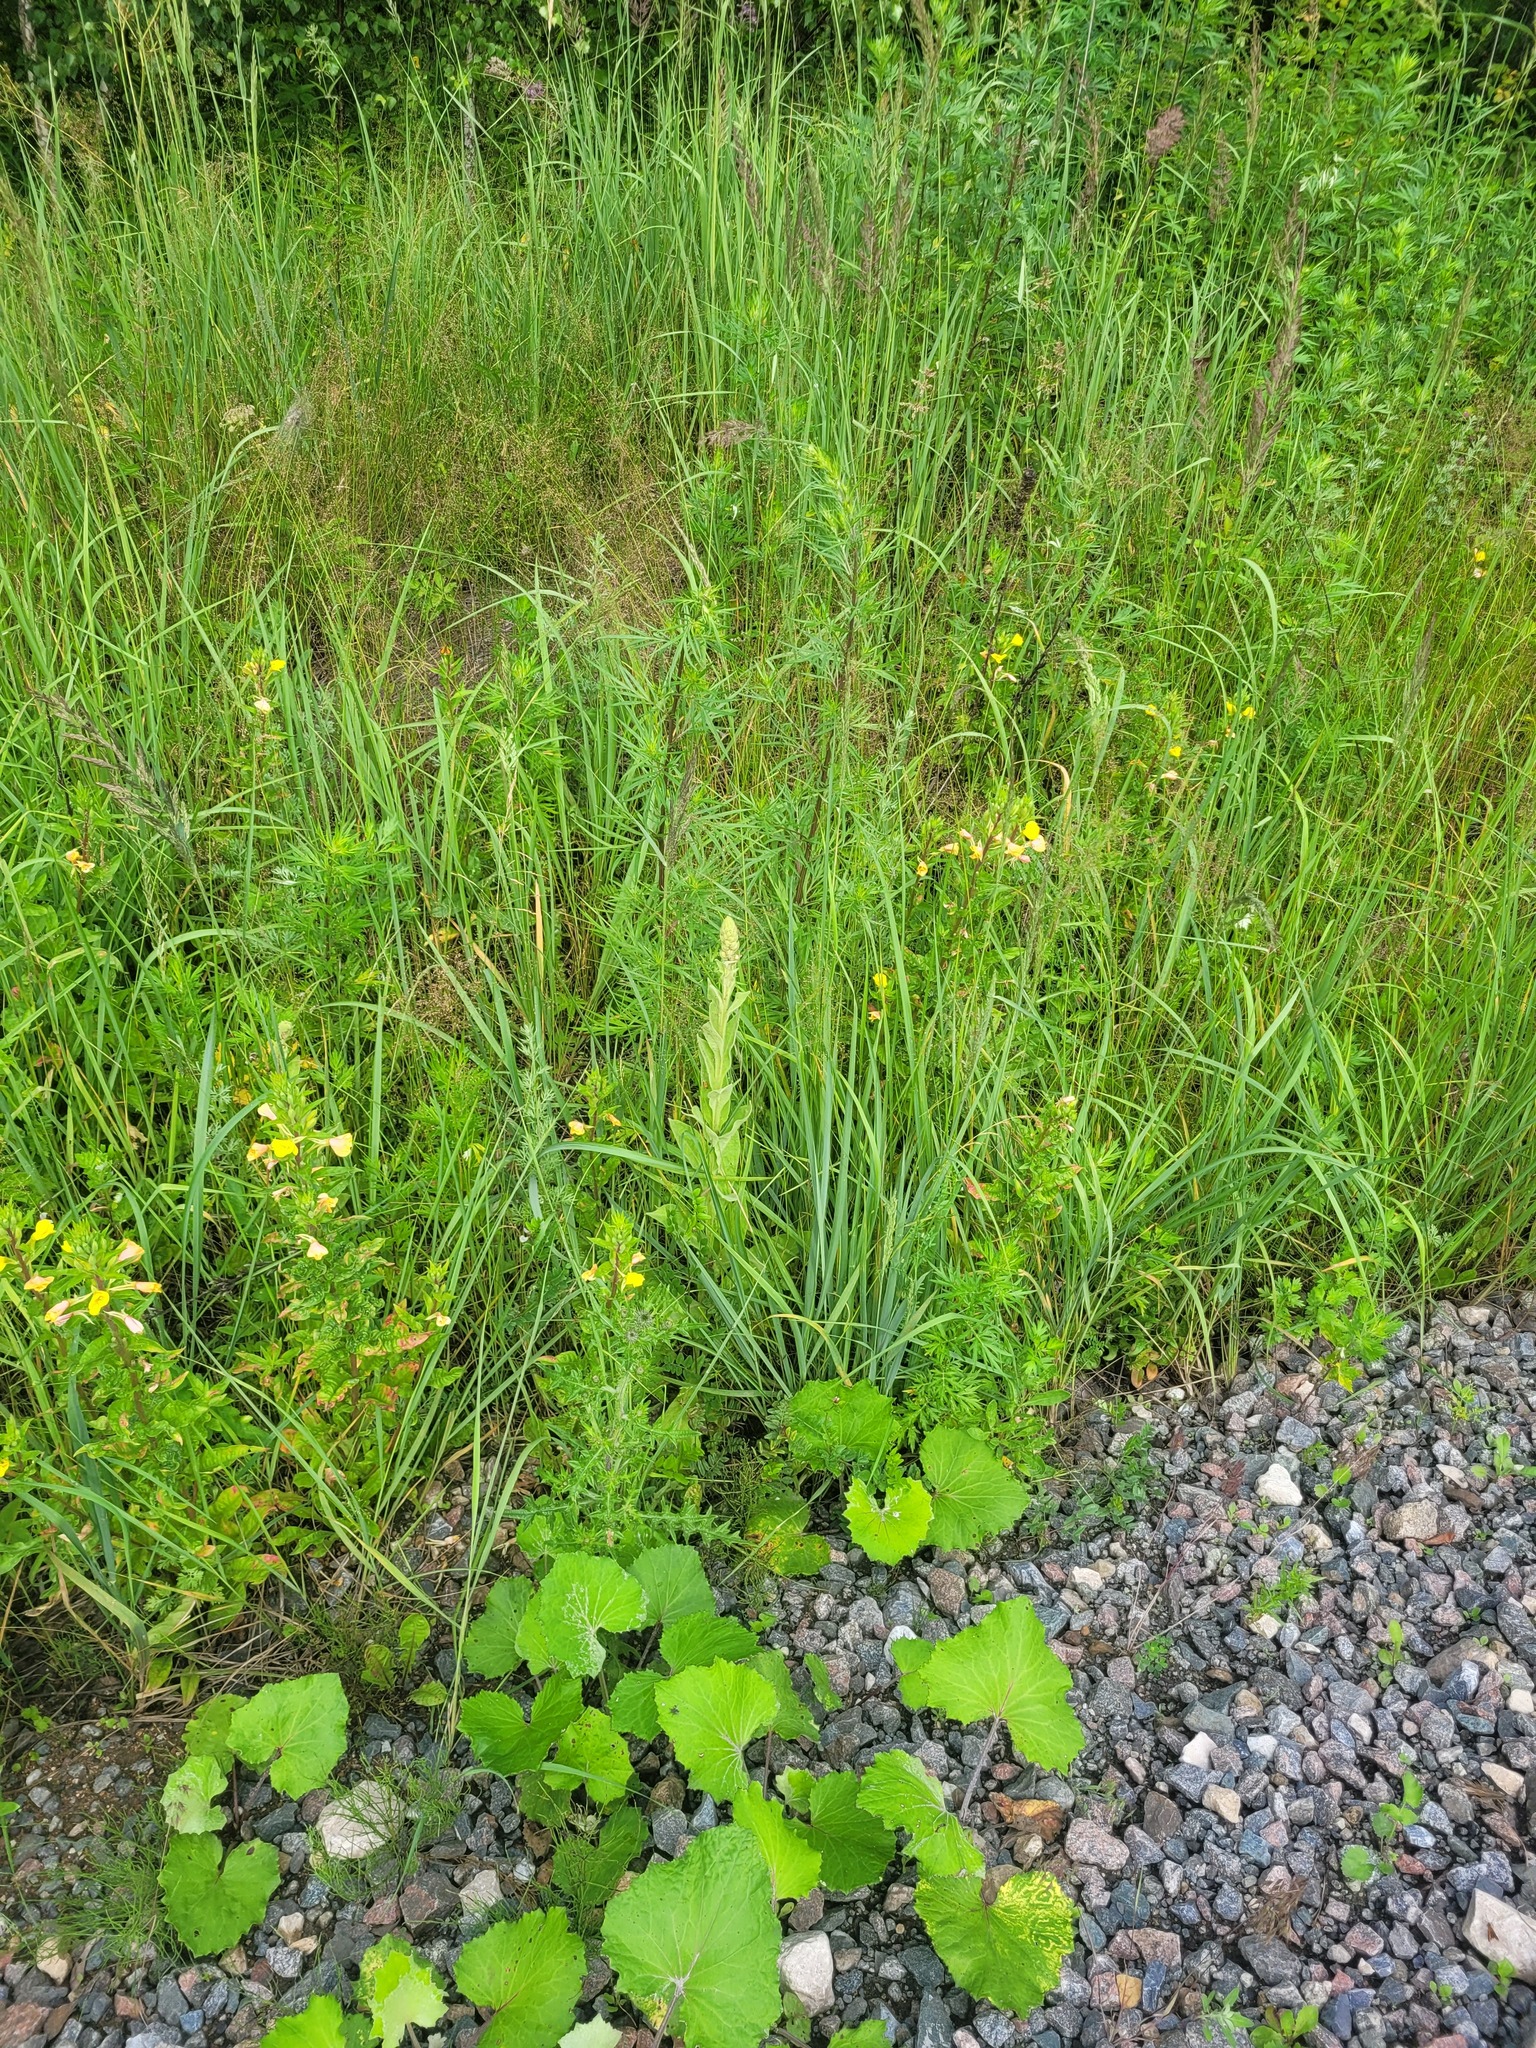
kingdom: Plantae
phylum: Tracheophyta
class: Magnoliopsida
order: Lamiales
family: Scrophulariaceae
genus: Verbascum
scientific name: Verbascum thapsus
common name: Common mullein
